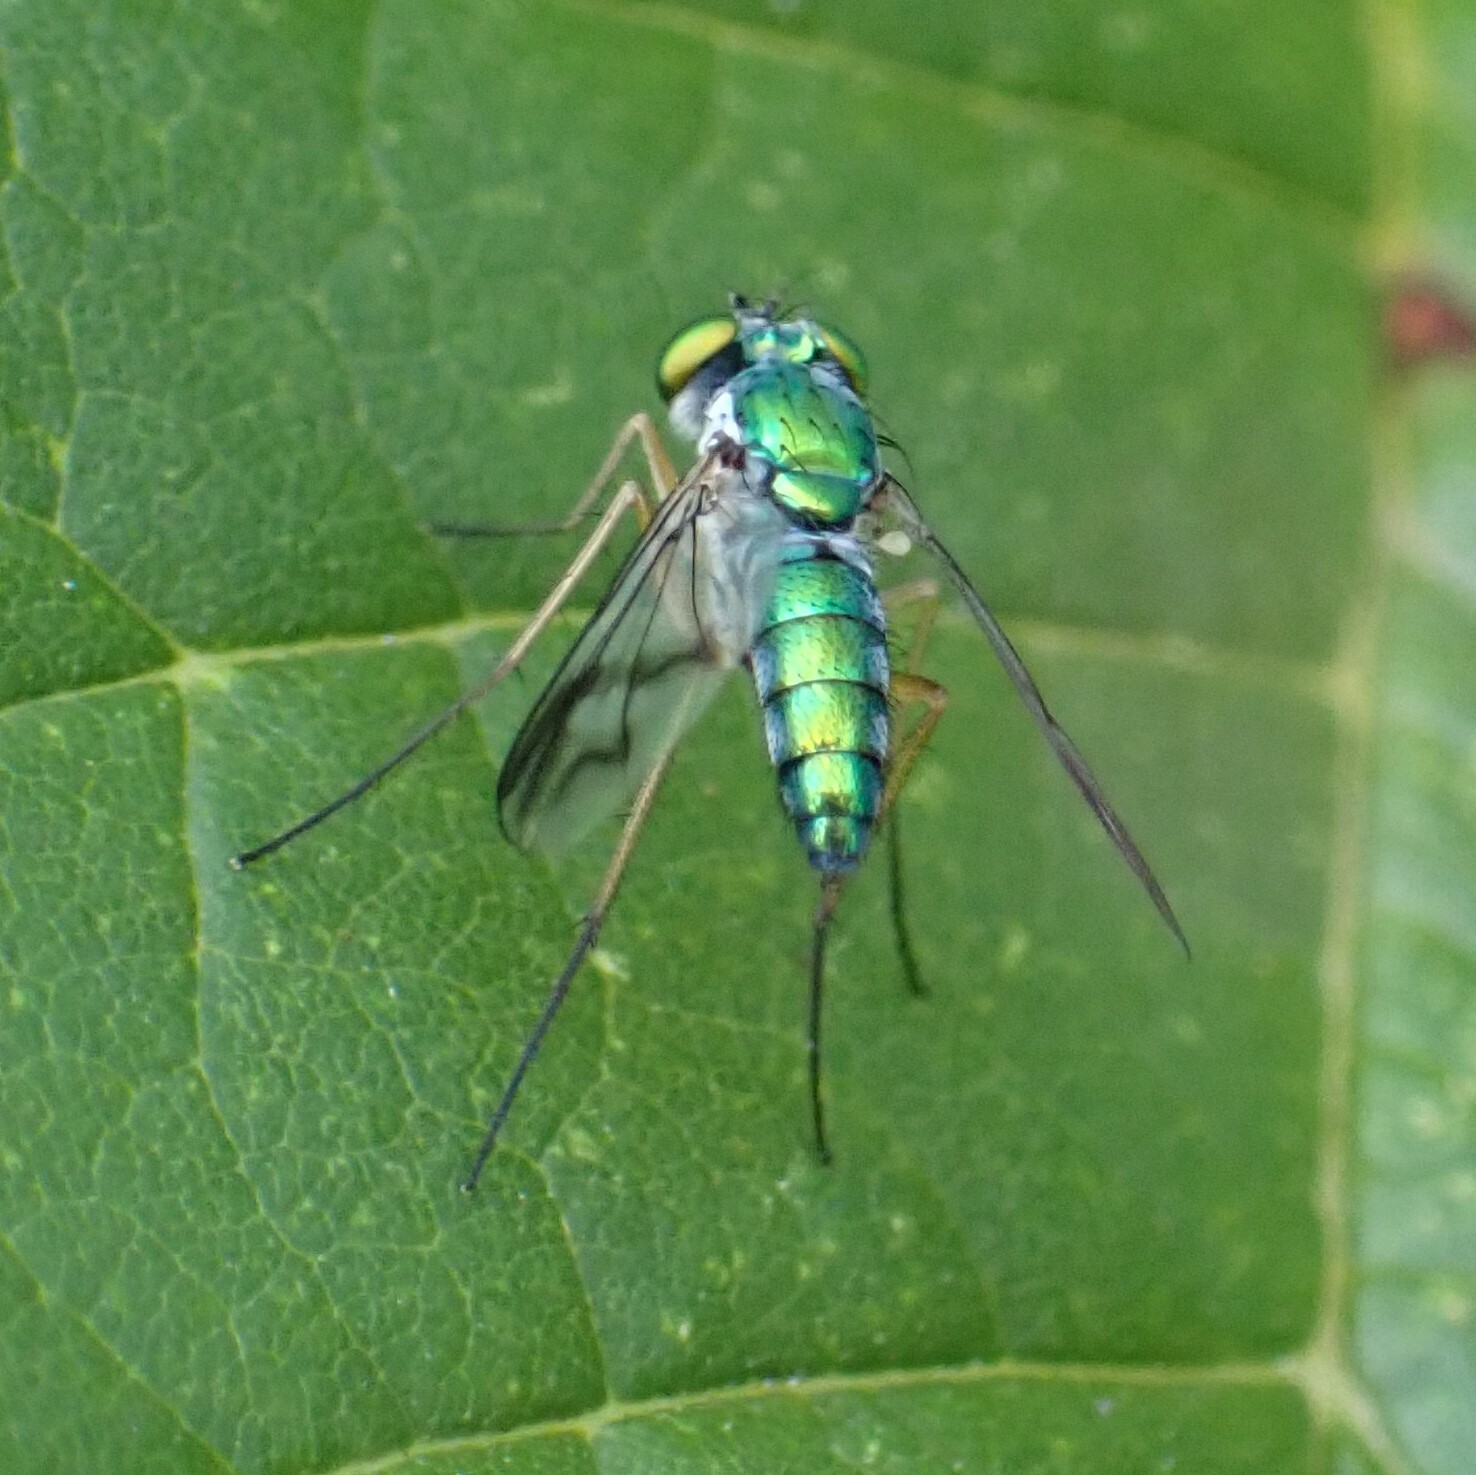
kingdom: Animalia
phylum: Arthropoda
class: Insecta
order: Diptera
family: Dolichopodidae
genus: Condylostylus
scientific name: Condylostylus
